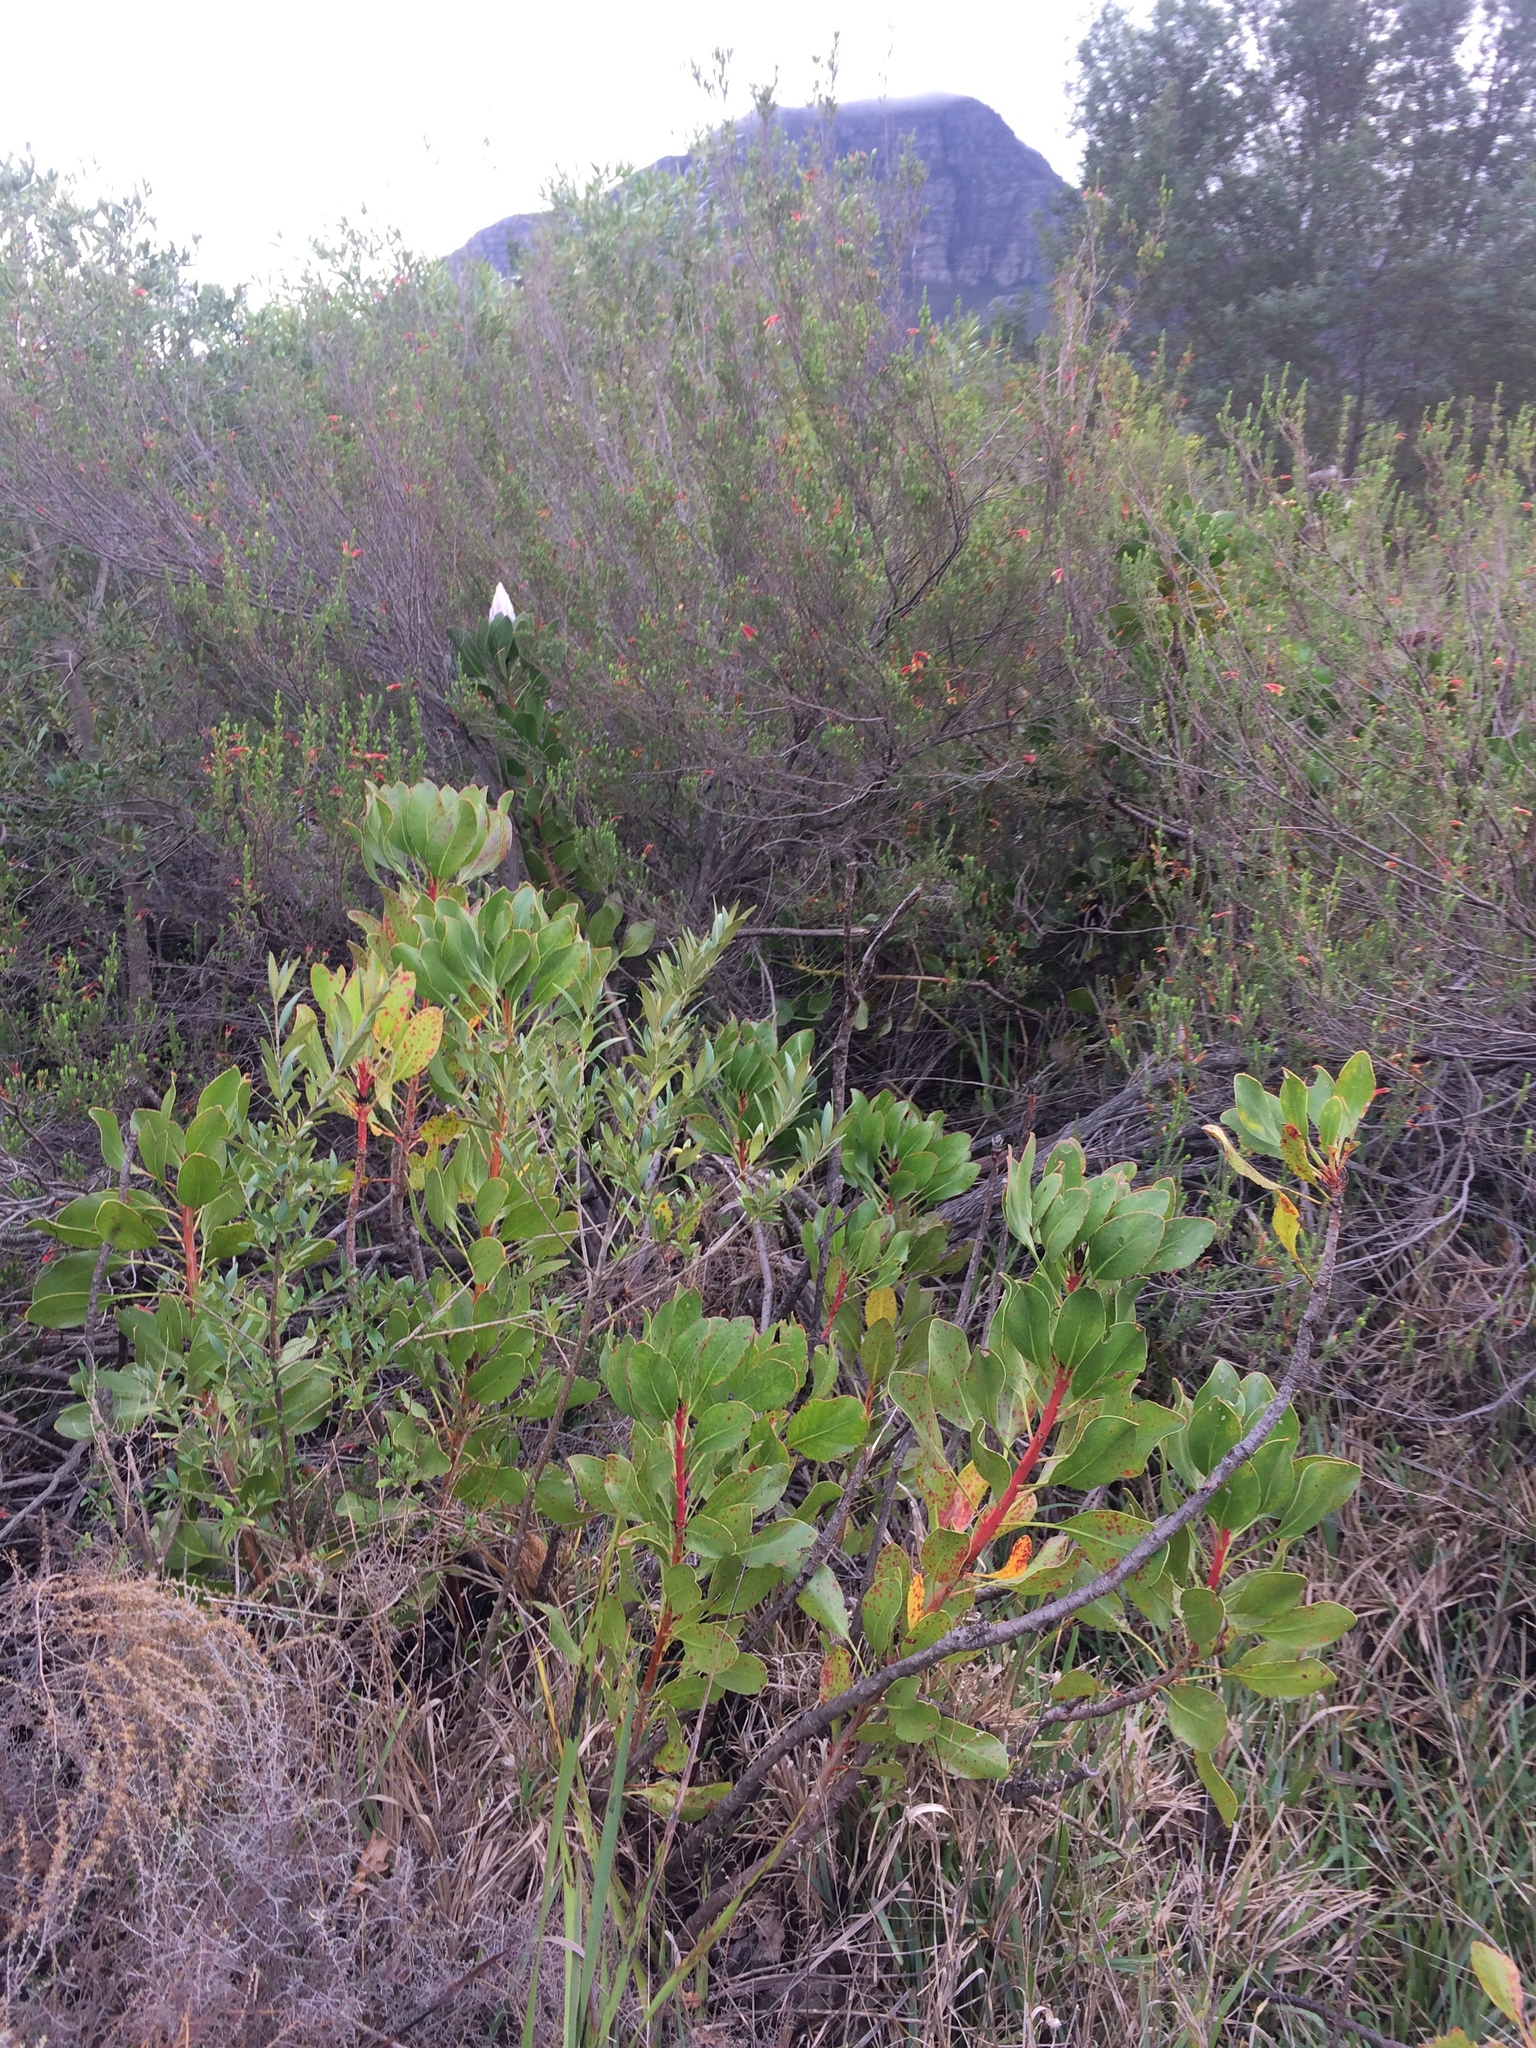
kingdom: Plantae
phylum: Tracheophyta
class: Magnoliopsida
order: Proteales
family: Proteaceae
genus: Protea
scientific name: Protea cynaroides
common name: King protea
